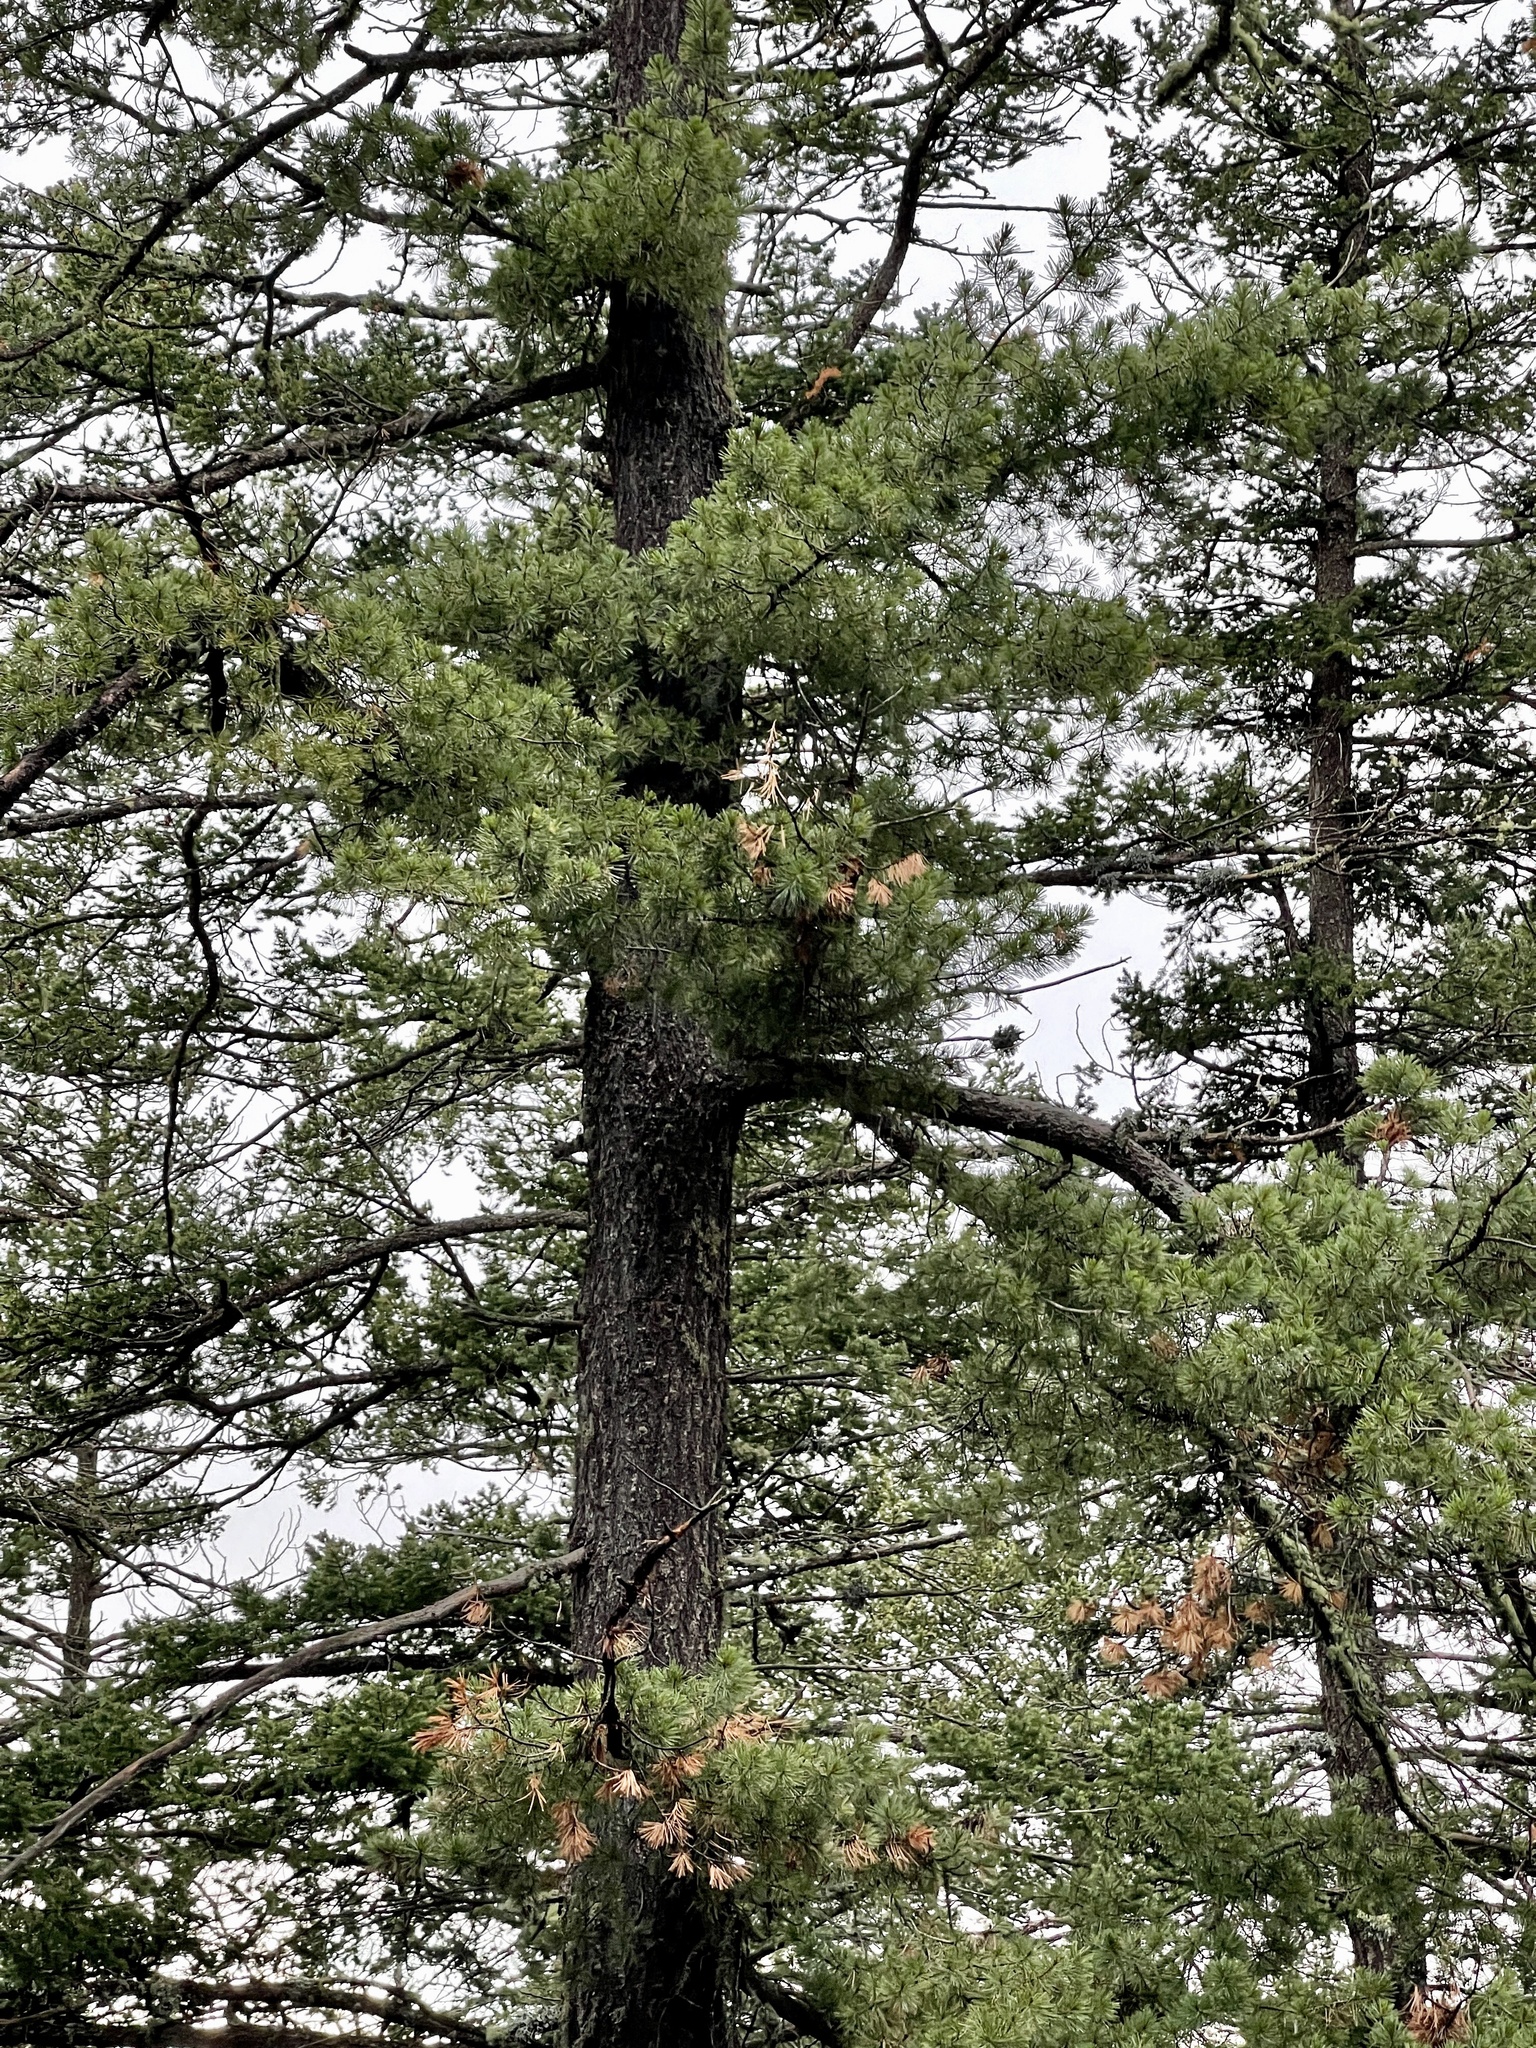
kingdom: Plantae
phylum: Tracheophyta
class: Pinopsida
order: Pinales
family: Pinaceae
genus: Pinus
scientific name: Pinus strobiformis
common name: Southwestern white pine
